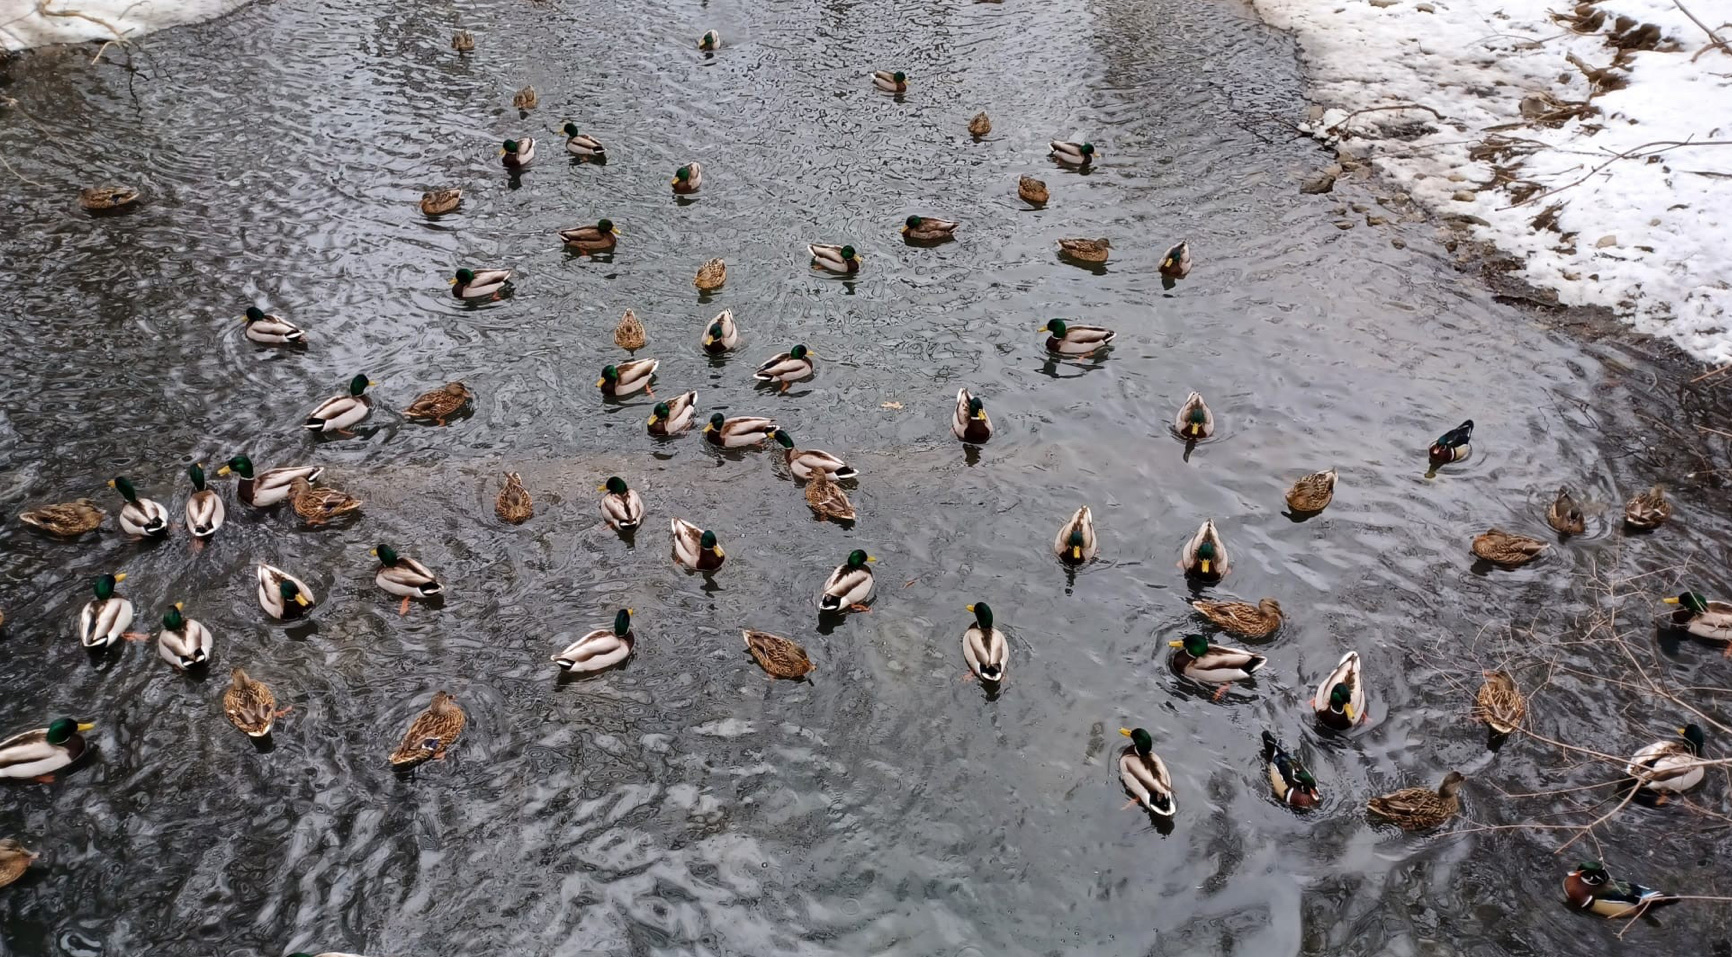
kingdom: Animalia
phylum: Chordata
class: Aves
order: Anseriformes
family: Anatidae
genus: Anas
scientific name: Anas platyrhynchos
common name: Mallard
